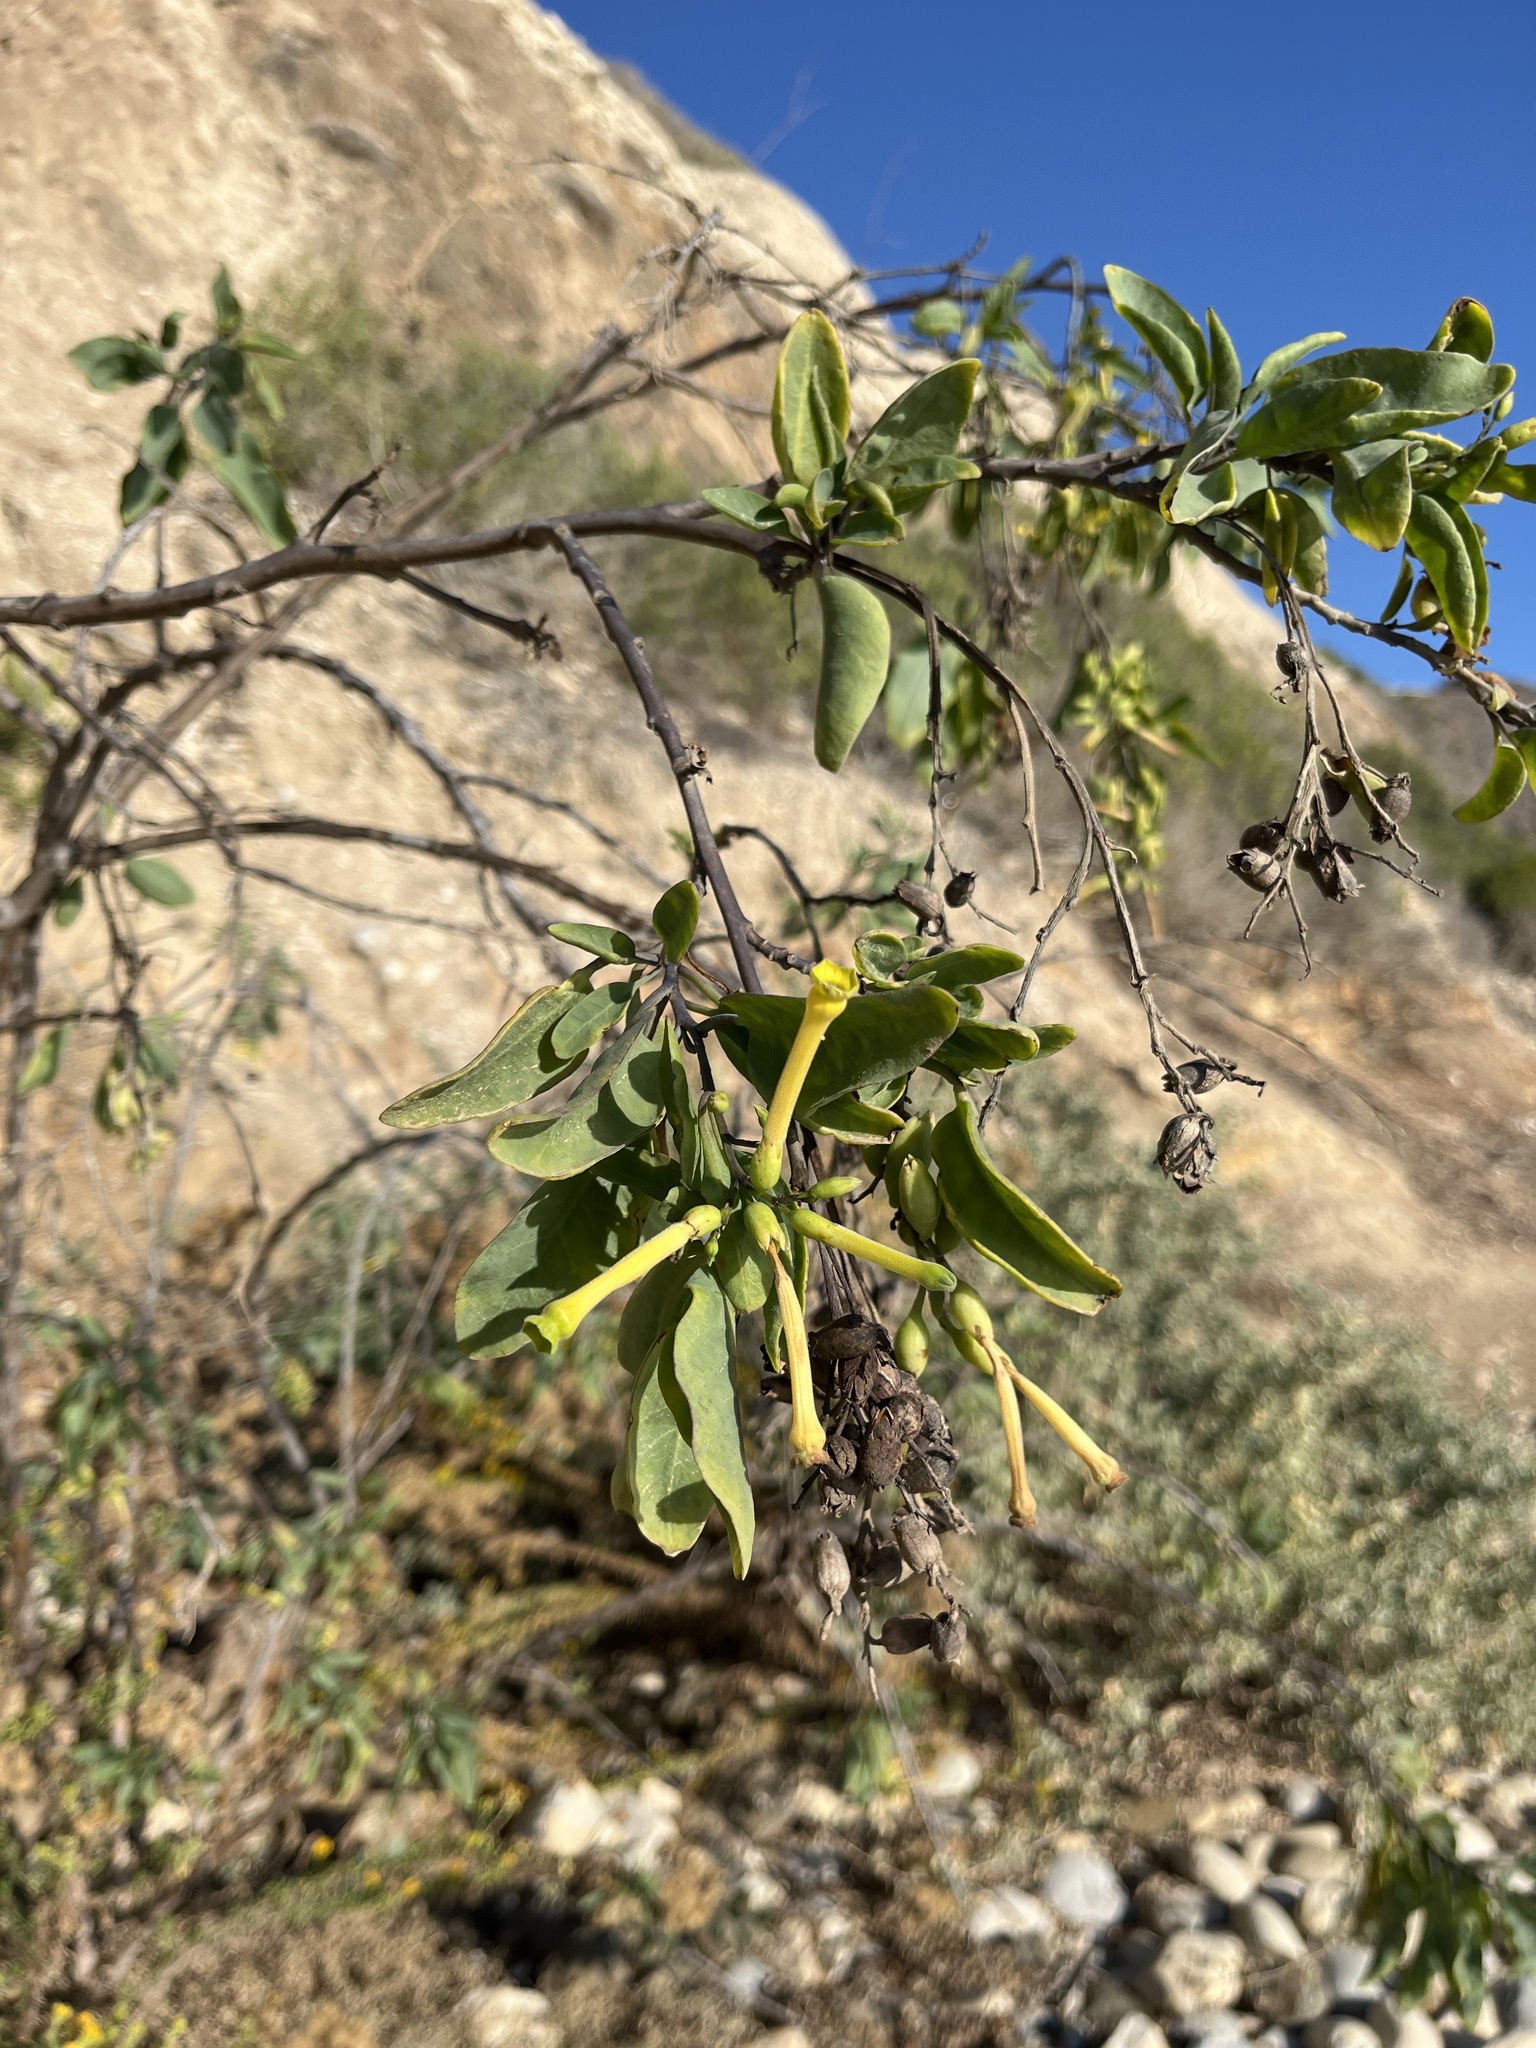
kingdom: Plantae
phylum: Tracheophyta
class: Magnoliopsida
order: Solanales
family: Solanaceae
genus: Nicotiana
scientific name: Nicotiana glauca
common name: Tree tobacco
